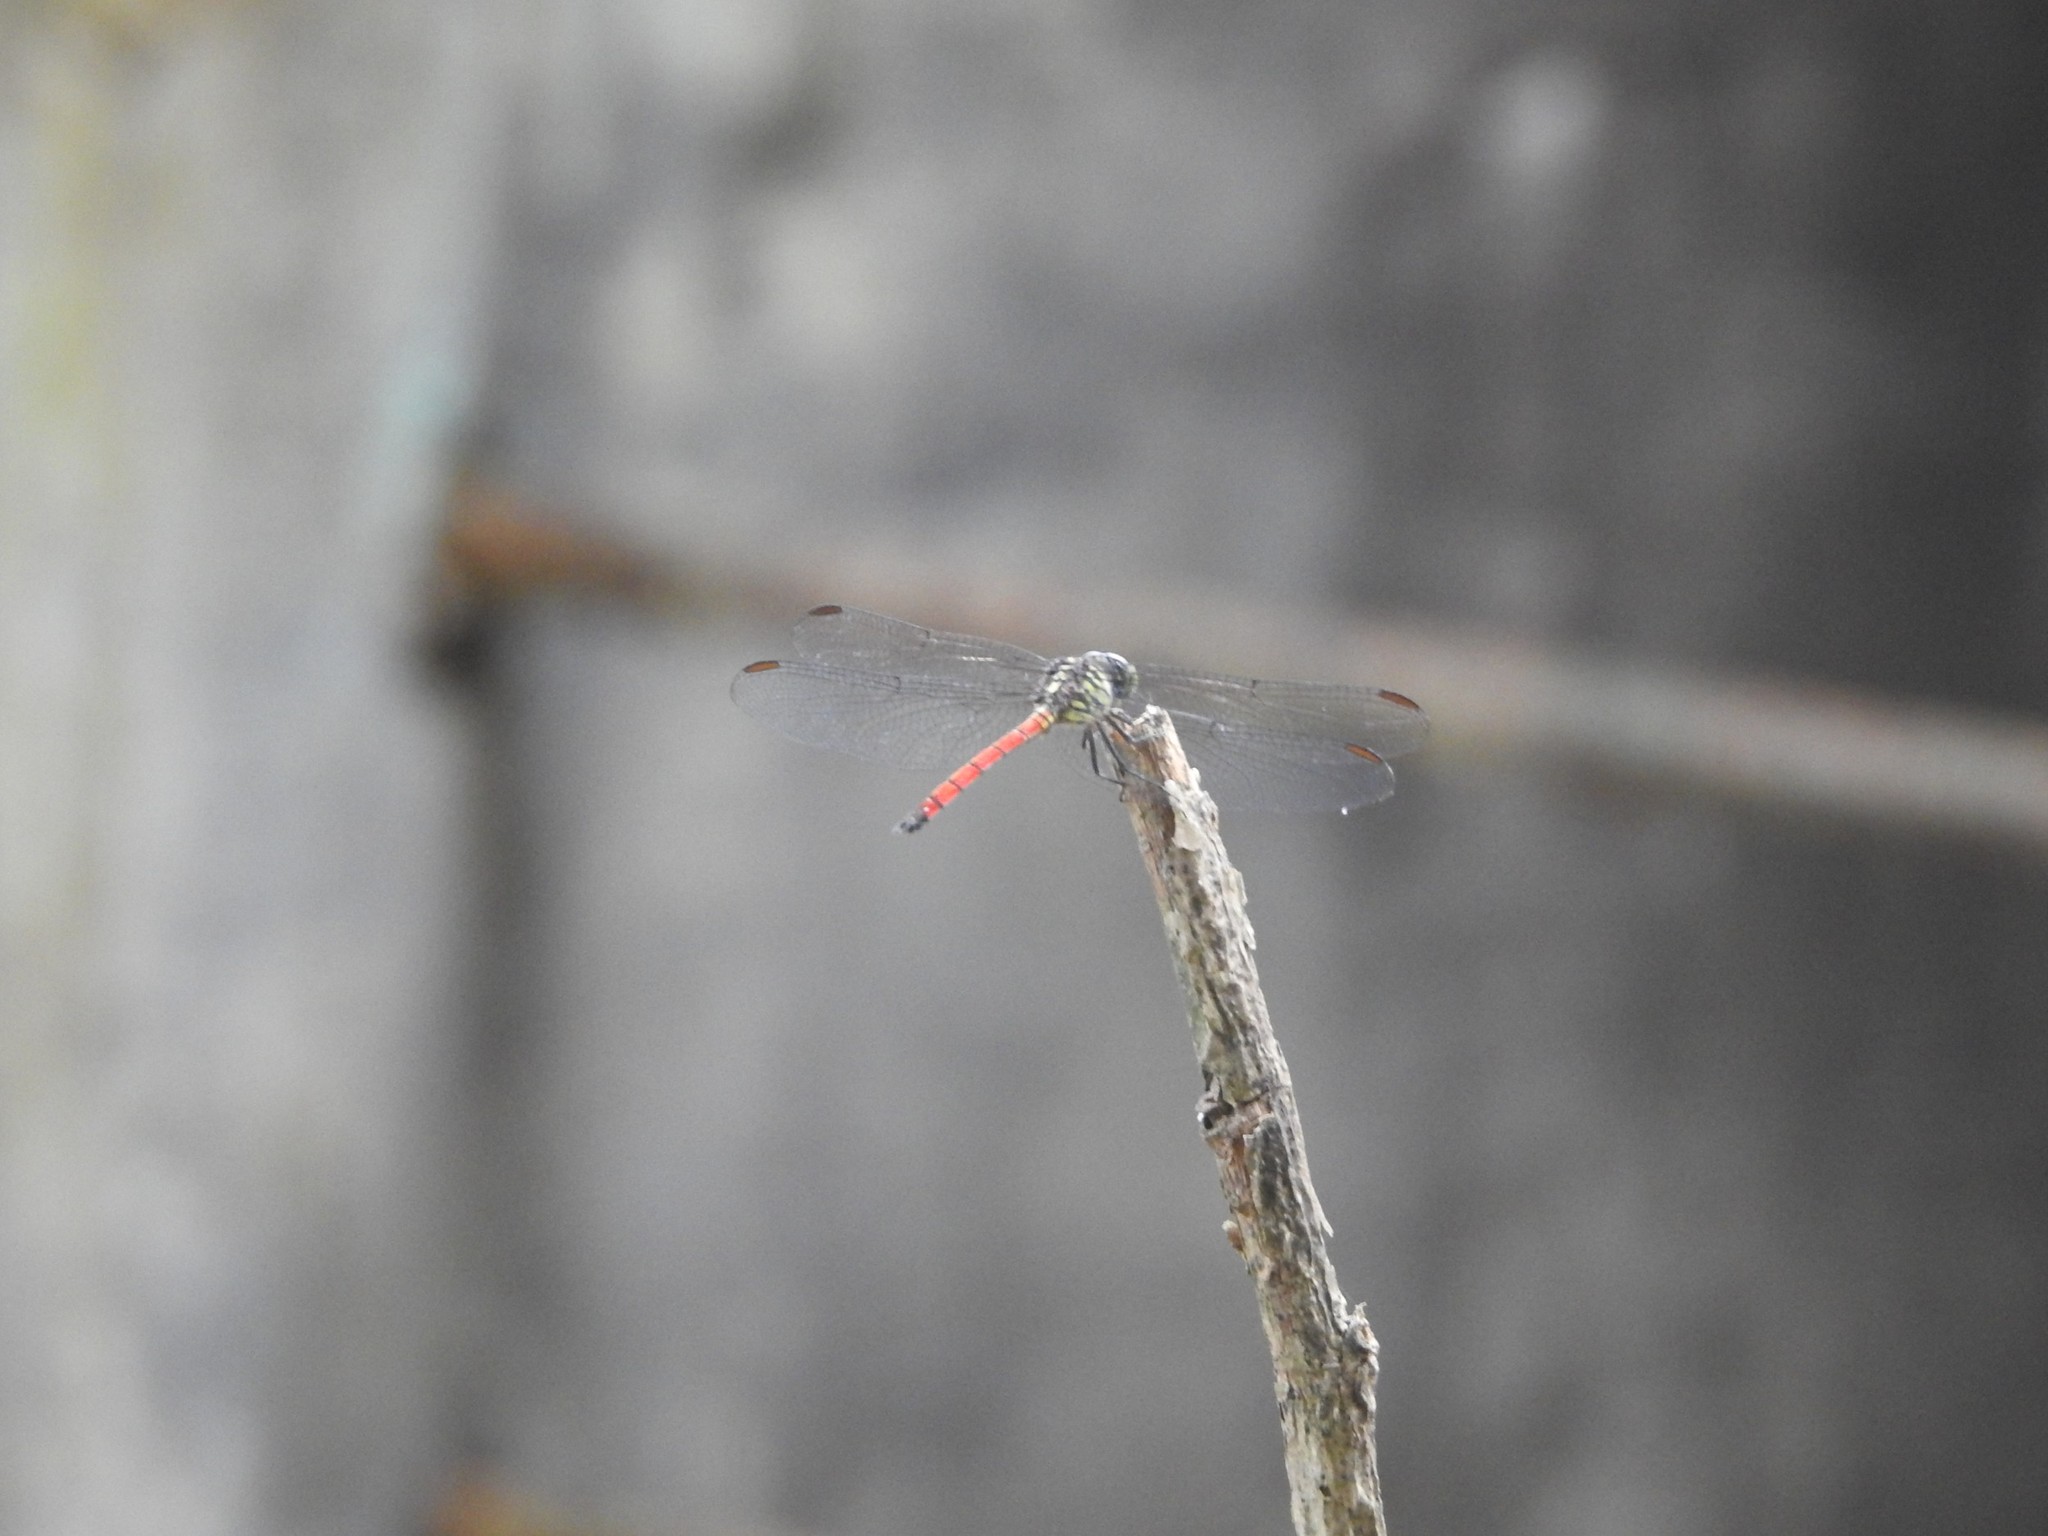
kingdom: Animalia
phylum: Arthropoda
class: Insecta
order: Odonata
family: Libellulidae
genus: Lathrecista
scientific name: Lathrecista asiatica
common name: Scarlet grenadier
